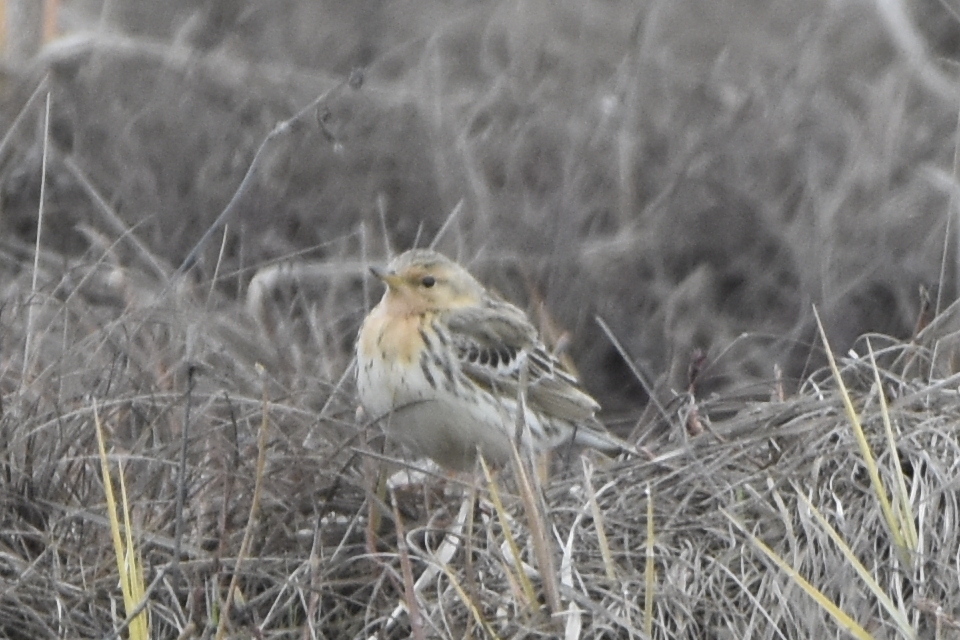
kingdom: Animalia
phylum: Chordata
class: Aves
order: Passeriformes
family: Motacillidae
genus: Anthus
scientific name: Anthus cervinus
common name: Red-throated pipit
